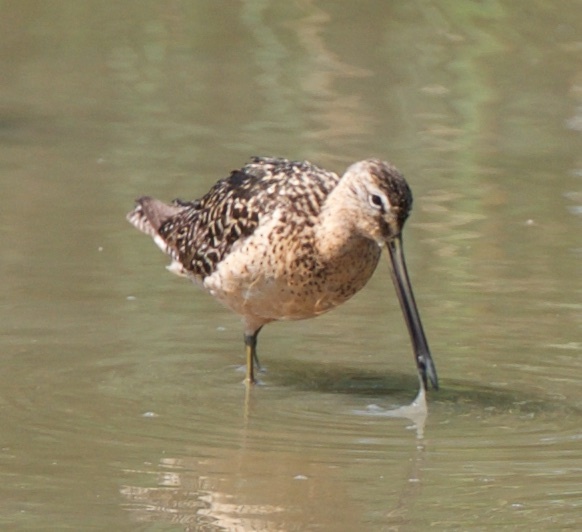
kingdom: Animalia
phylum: Chordata
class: Aves
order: Charadriiformes
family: Scolopacidae
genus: Limnodromus
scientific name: Limnodromus scolopaceus
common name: Long-billed dowitcher
